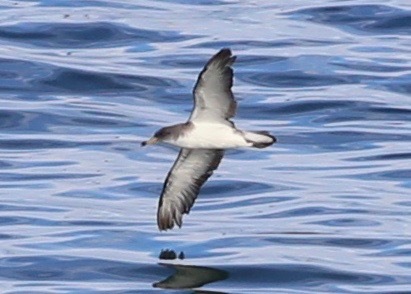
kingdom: Animalia
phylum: Chordata
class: Aves
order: Procellariiformes
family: Procellariidae
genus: Calonectris
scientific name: Calonectris diomedea
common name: Cory's shearwater
